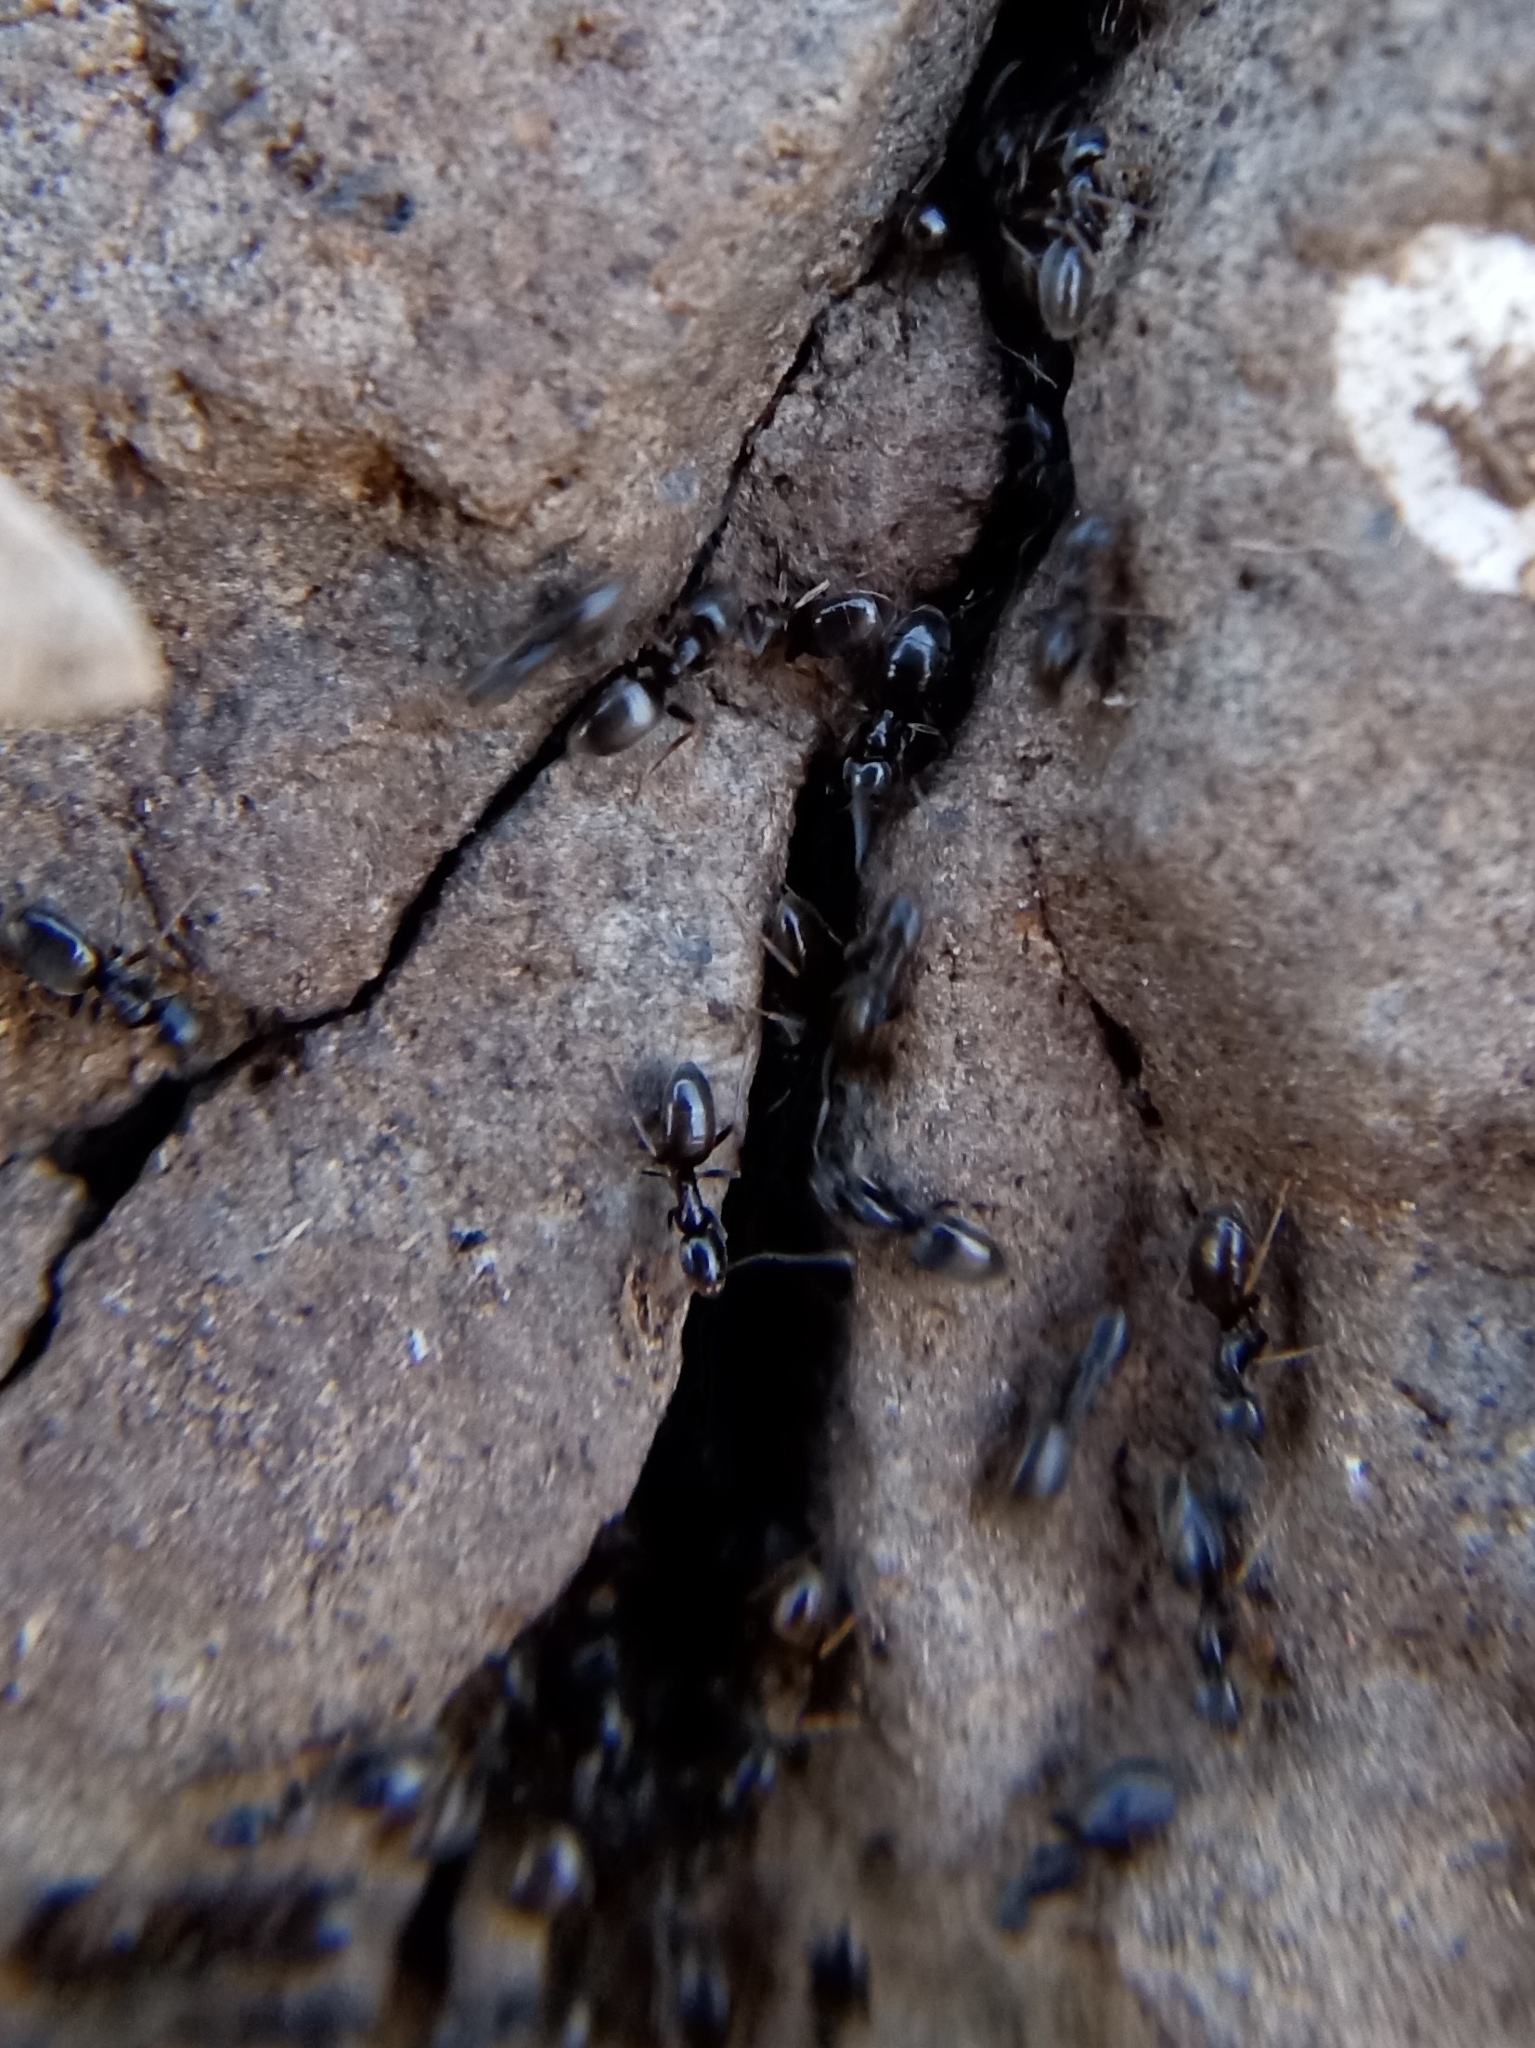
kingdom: Animalia
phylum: Arthropoda
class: Insecta
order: Hymenoptera
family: Formicidae
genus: Tapinoma
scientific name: Tapinoma sessile
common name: Odorous house ant
